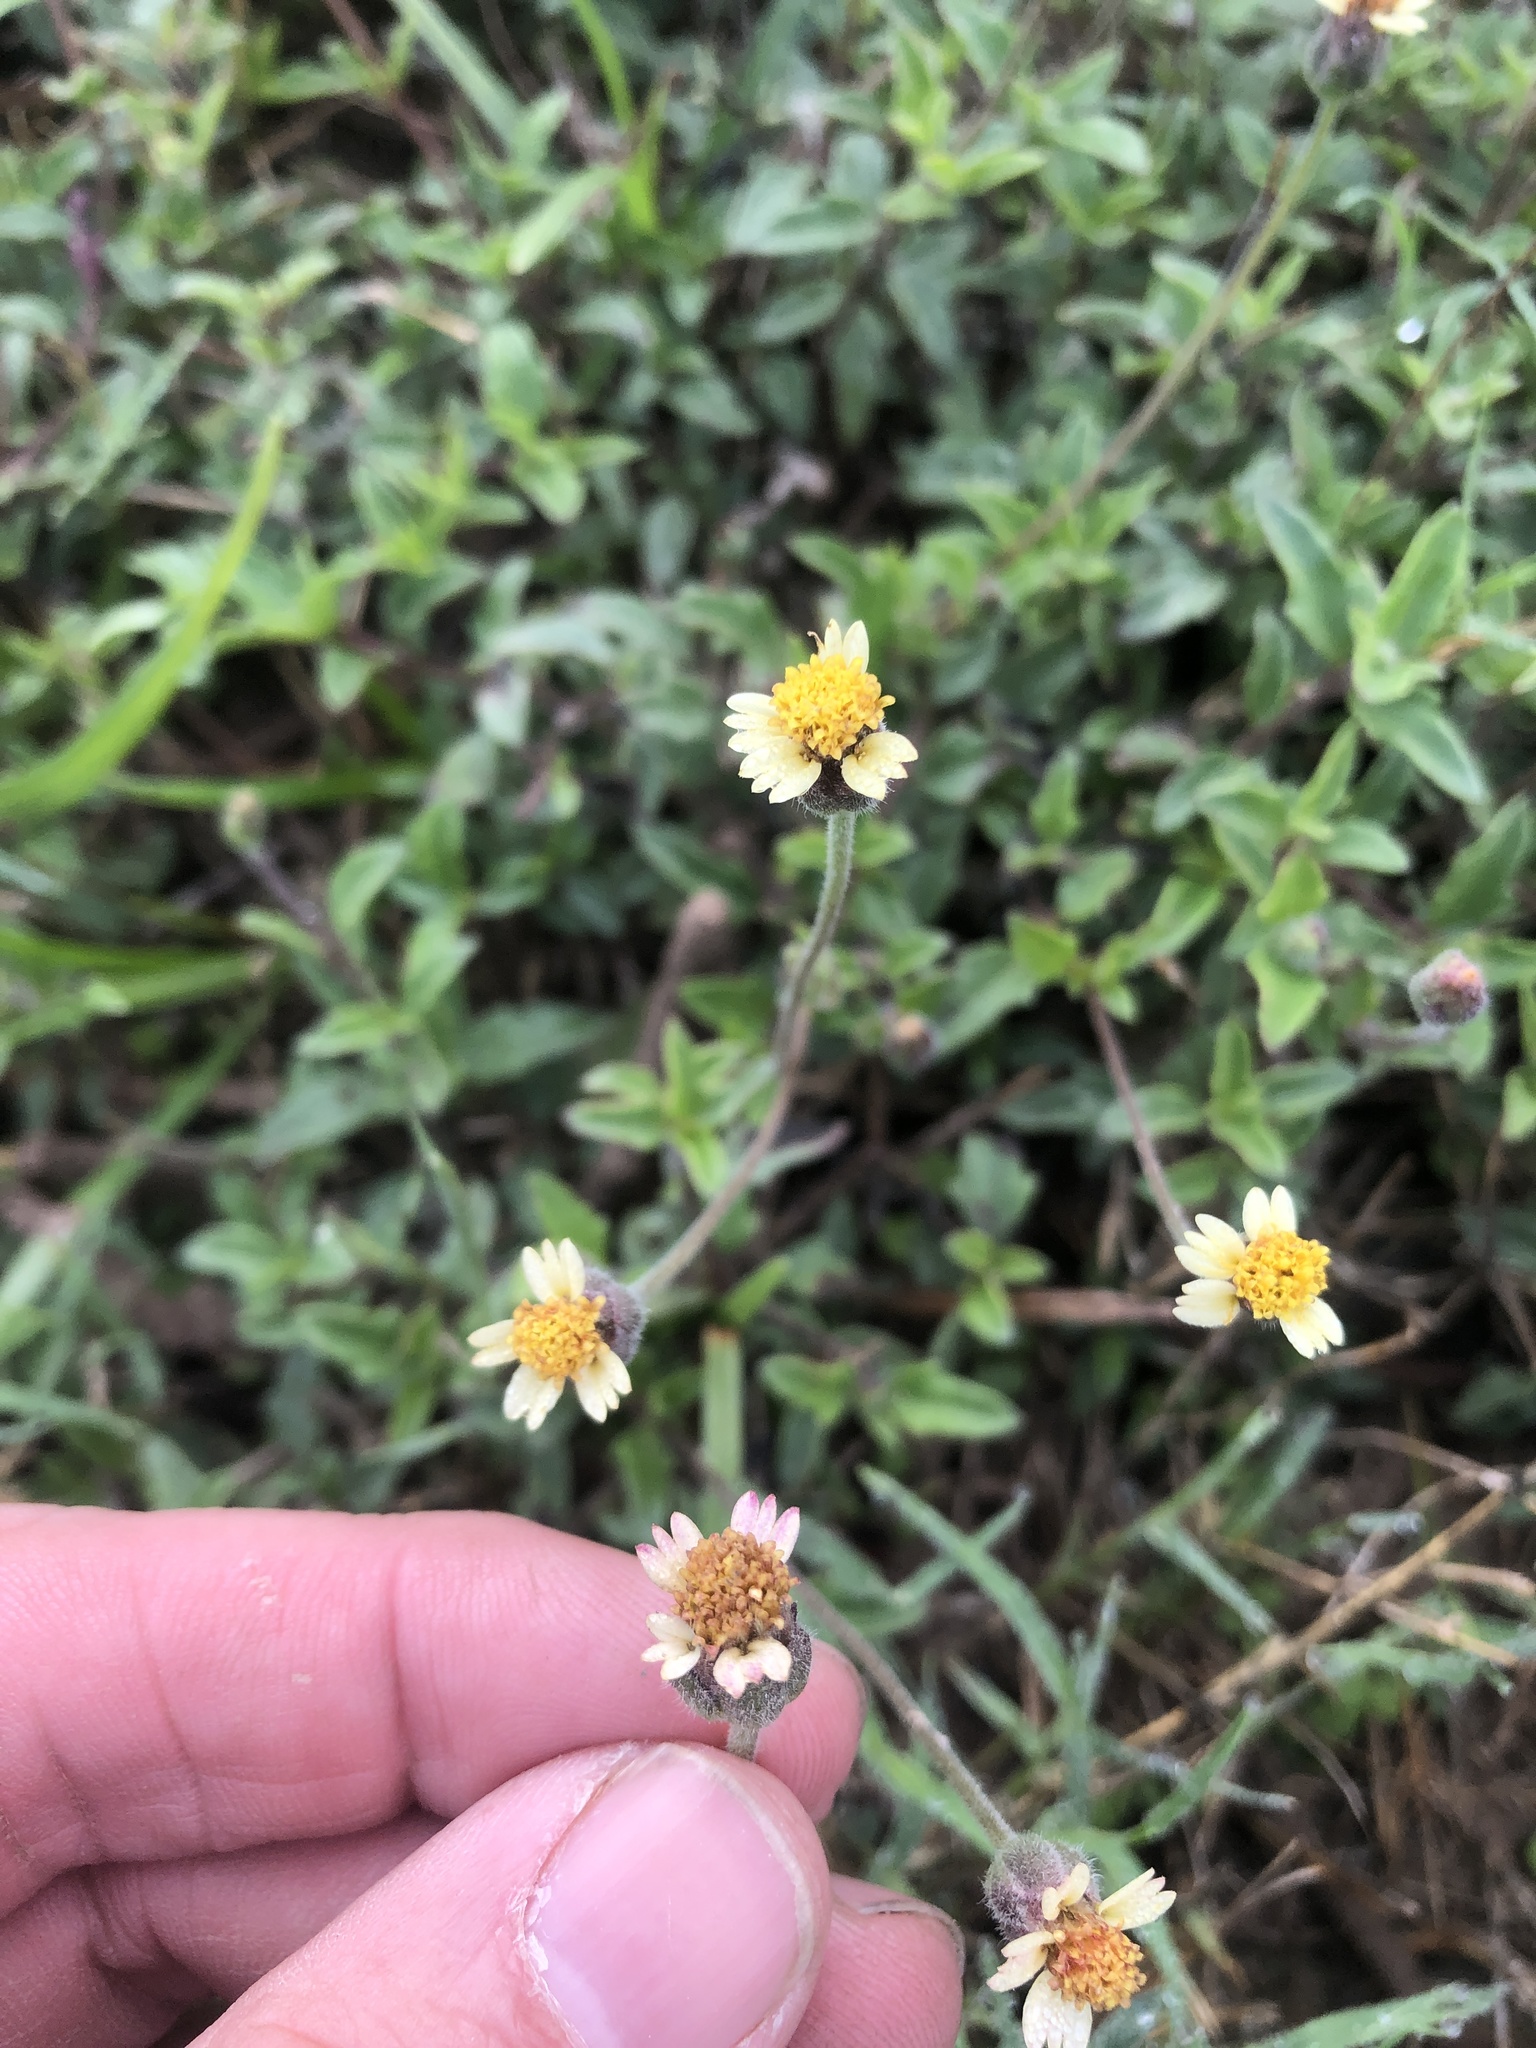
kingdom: Plantae
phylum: Tracheophyta
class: Magnoliopsida
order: Asterales
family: Asteraceae
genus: Tridax
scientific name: Tridax procumbens
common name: Coatbuttons
